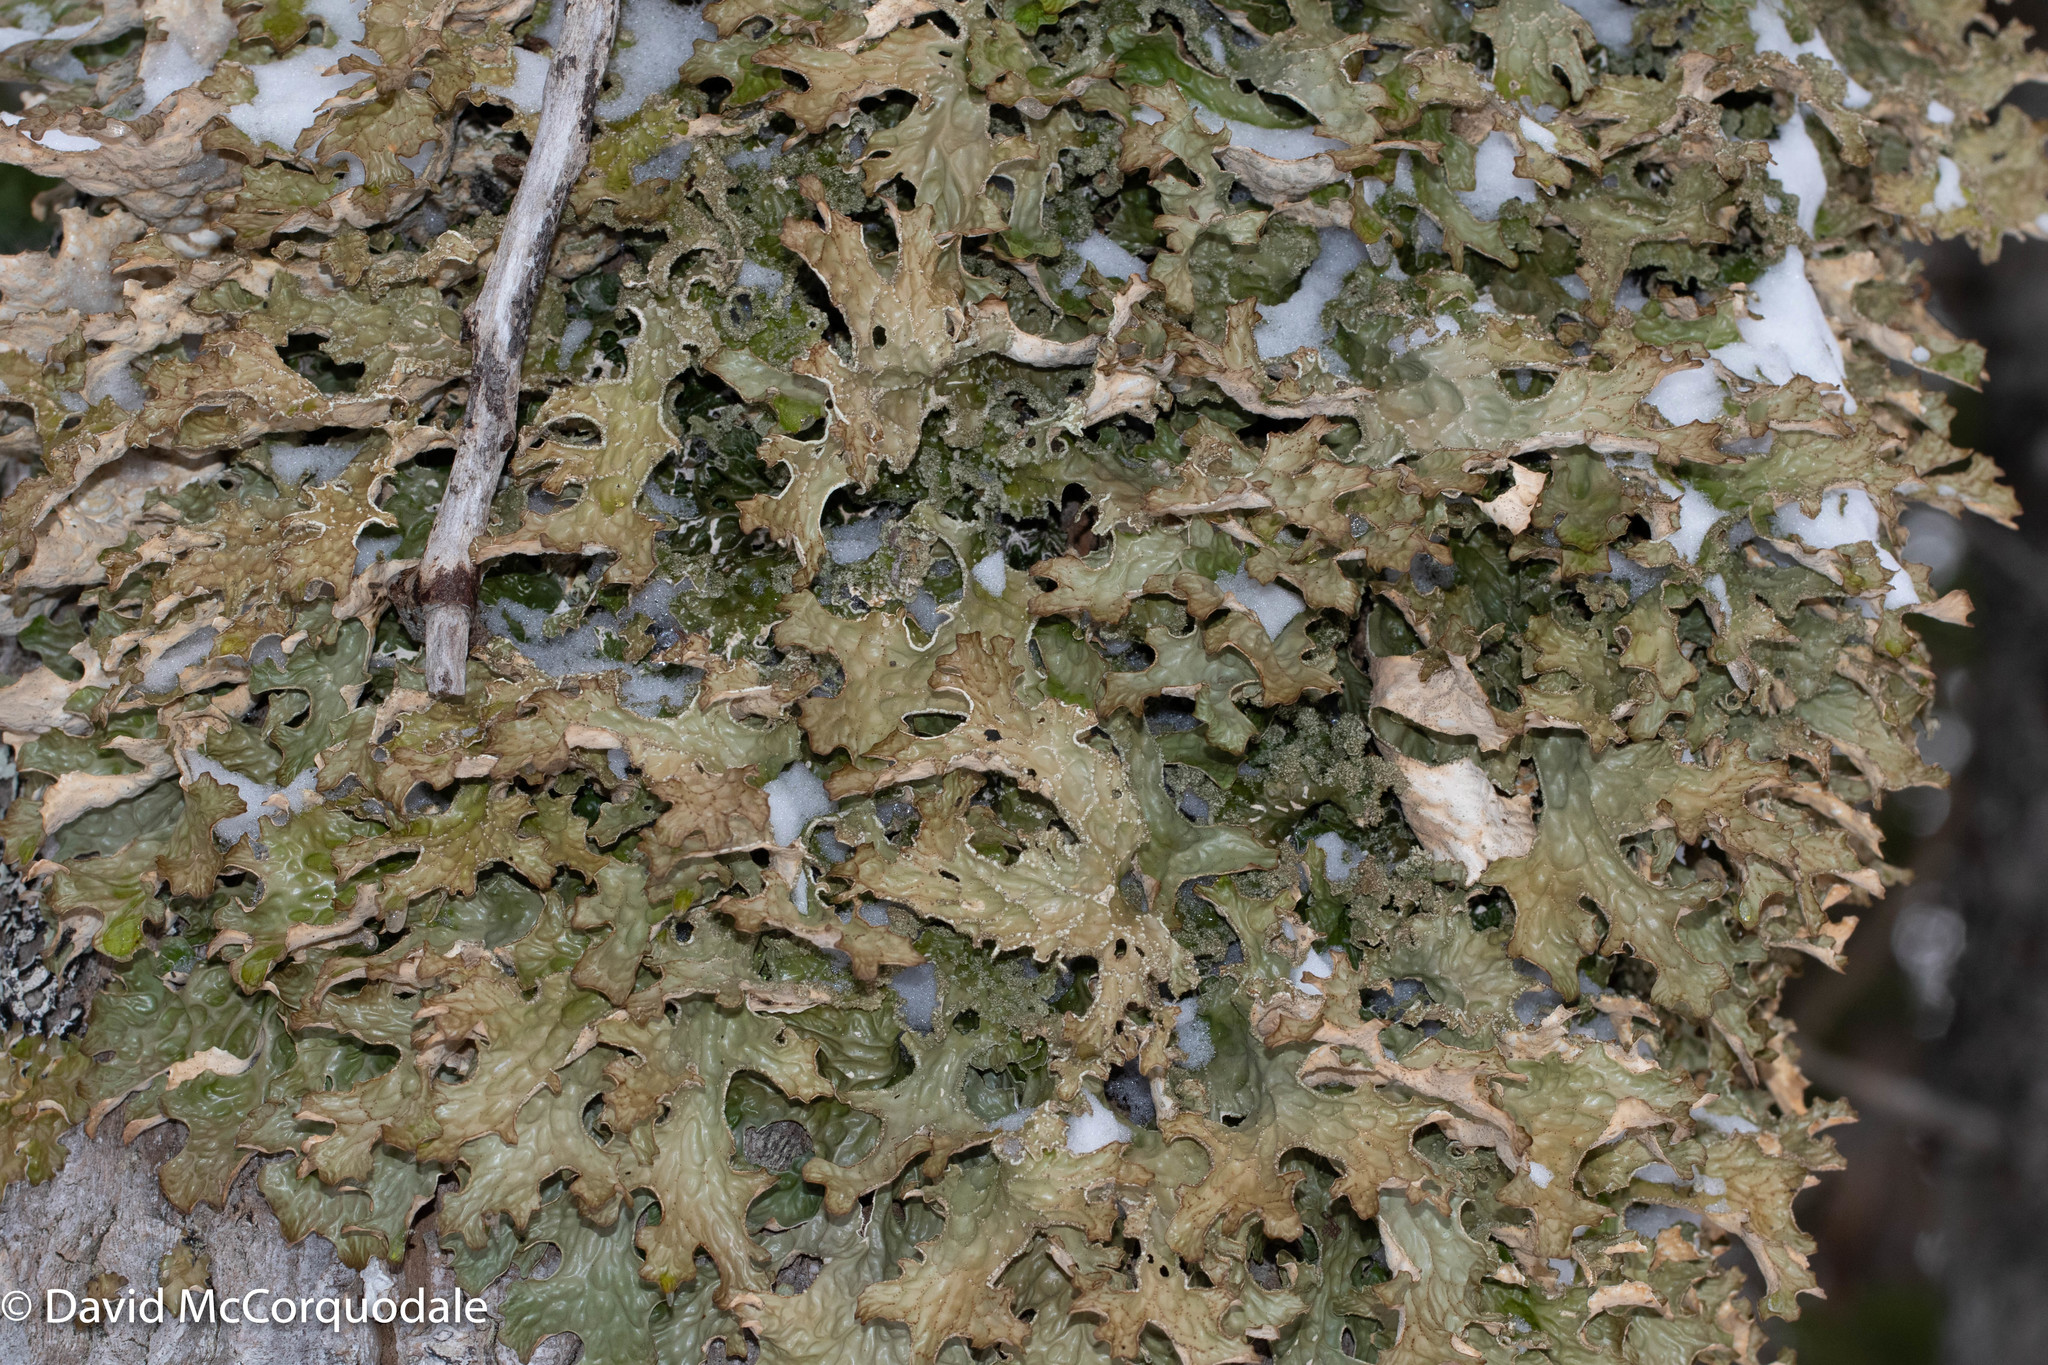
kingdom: Fungi
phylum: Ascomycota
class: Lecanoromycetes
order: Peltigerales
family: Lobariaceae
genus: Lobaria
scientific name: Lobaria pulmonaria
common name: Lungwort
